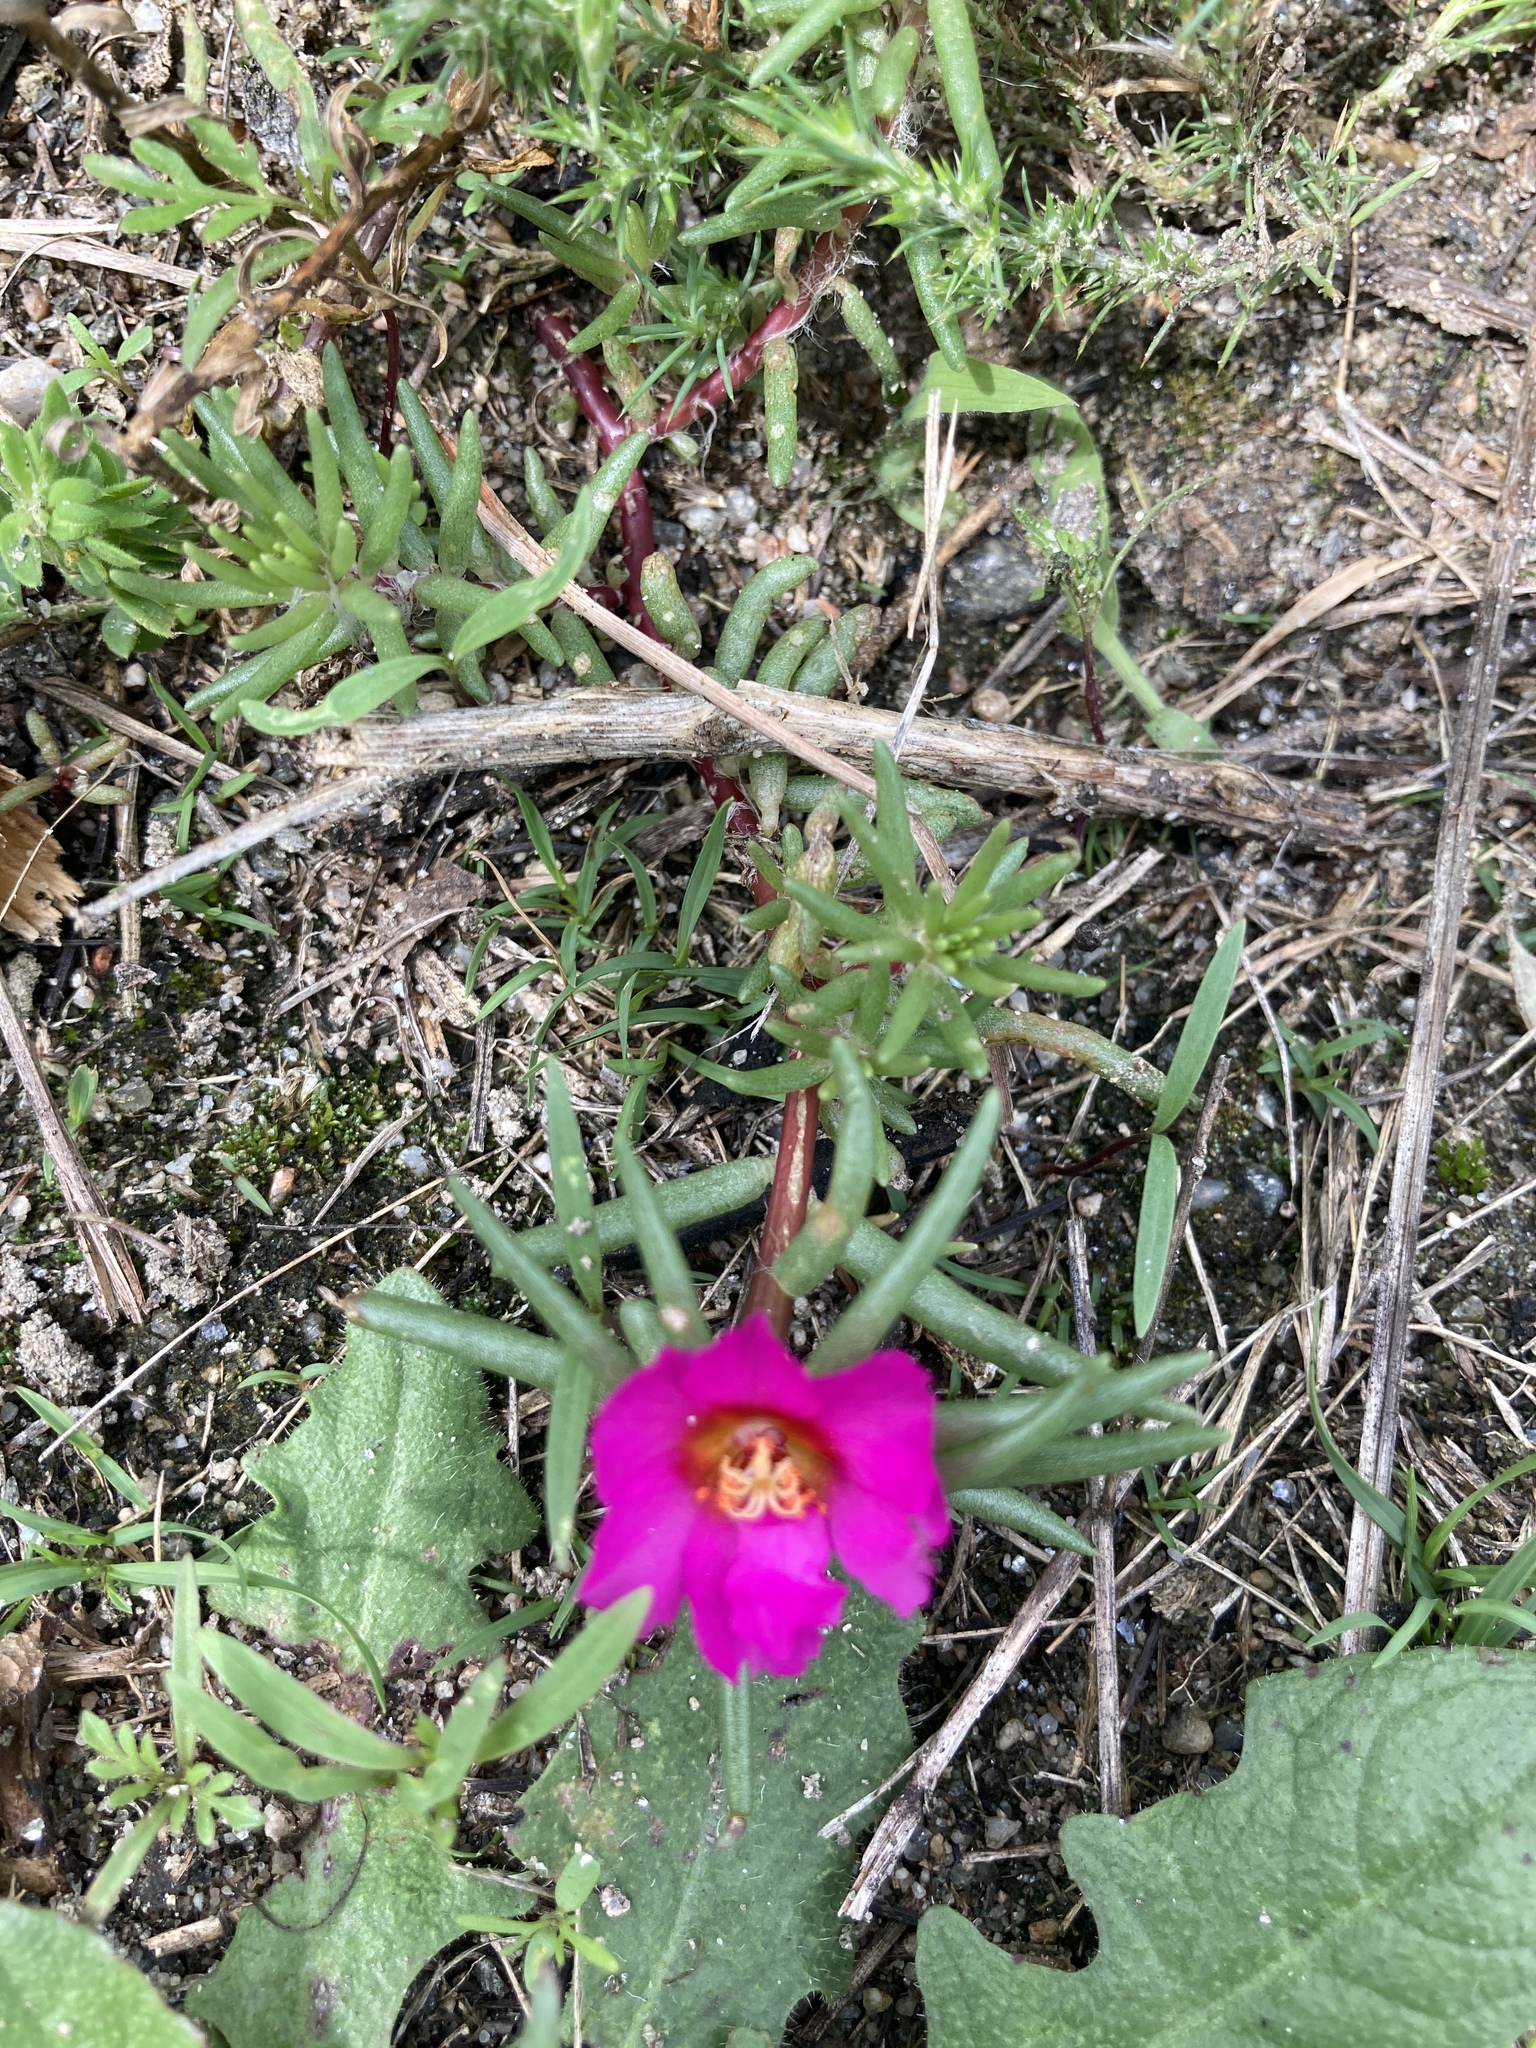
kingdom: Plantae
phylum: Tracheophyta
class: Magnoliopsida
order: Caryophyllales
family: Portulacaceae
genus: Portulaca
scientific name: Portulaca grandiflora
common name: Moss-rose
